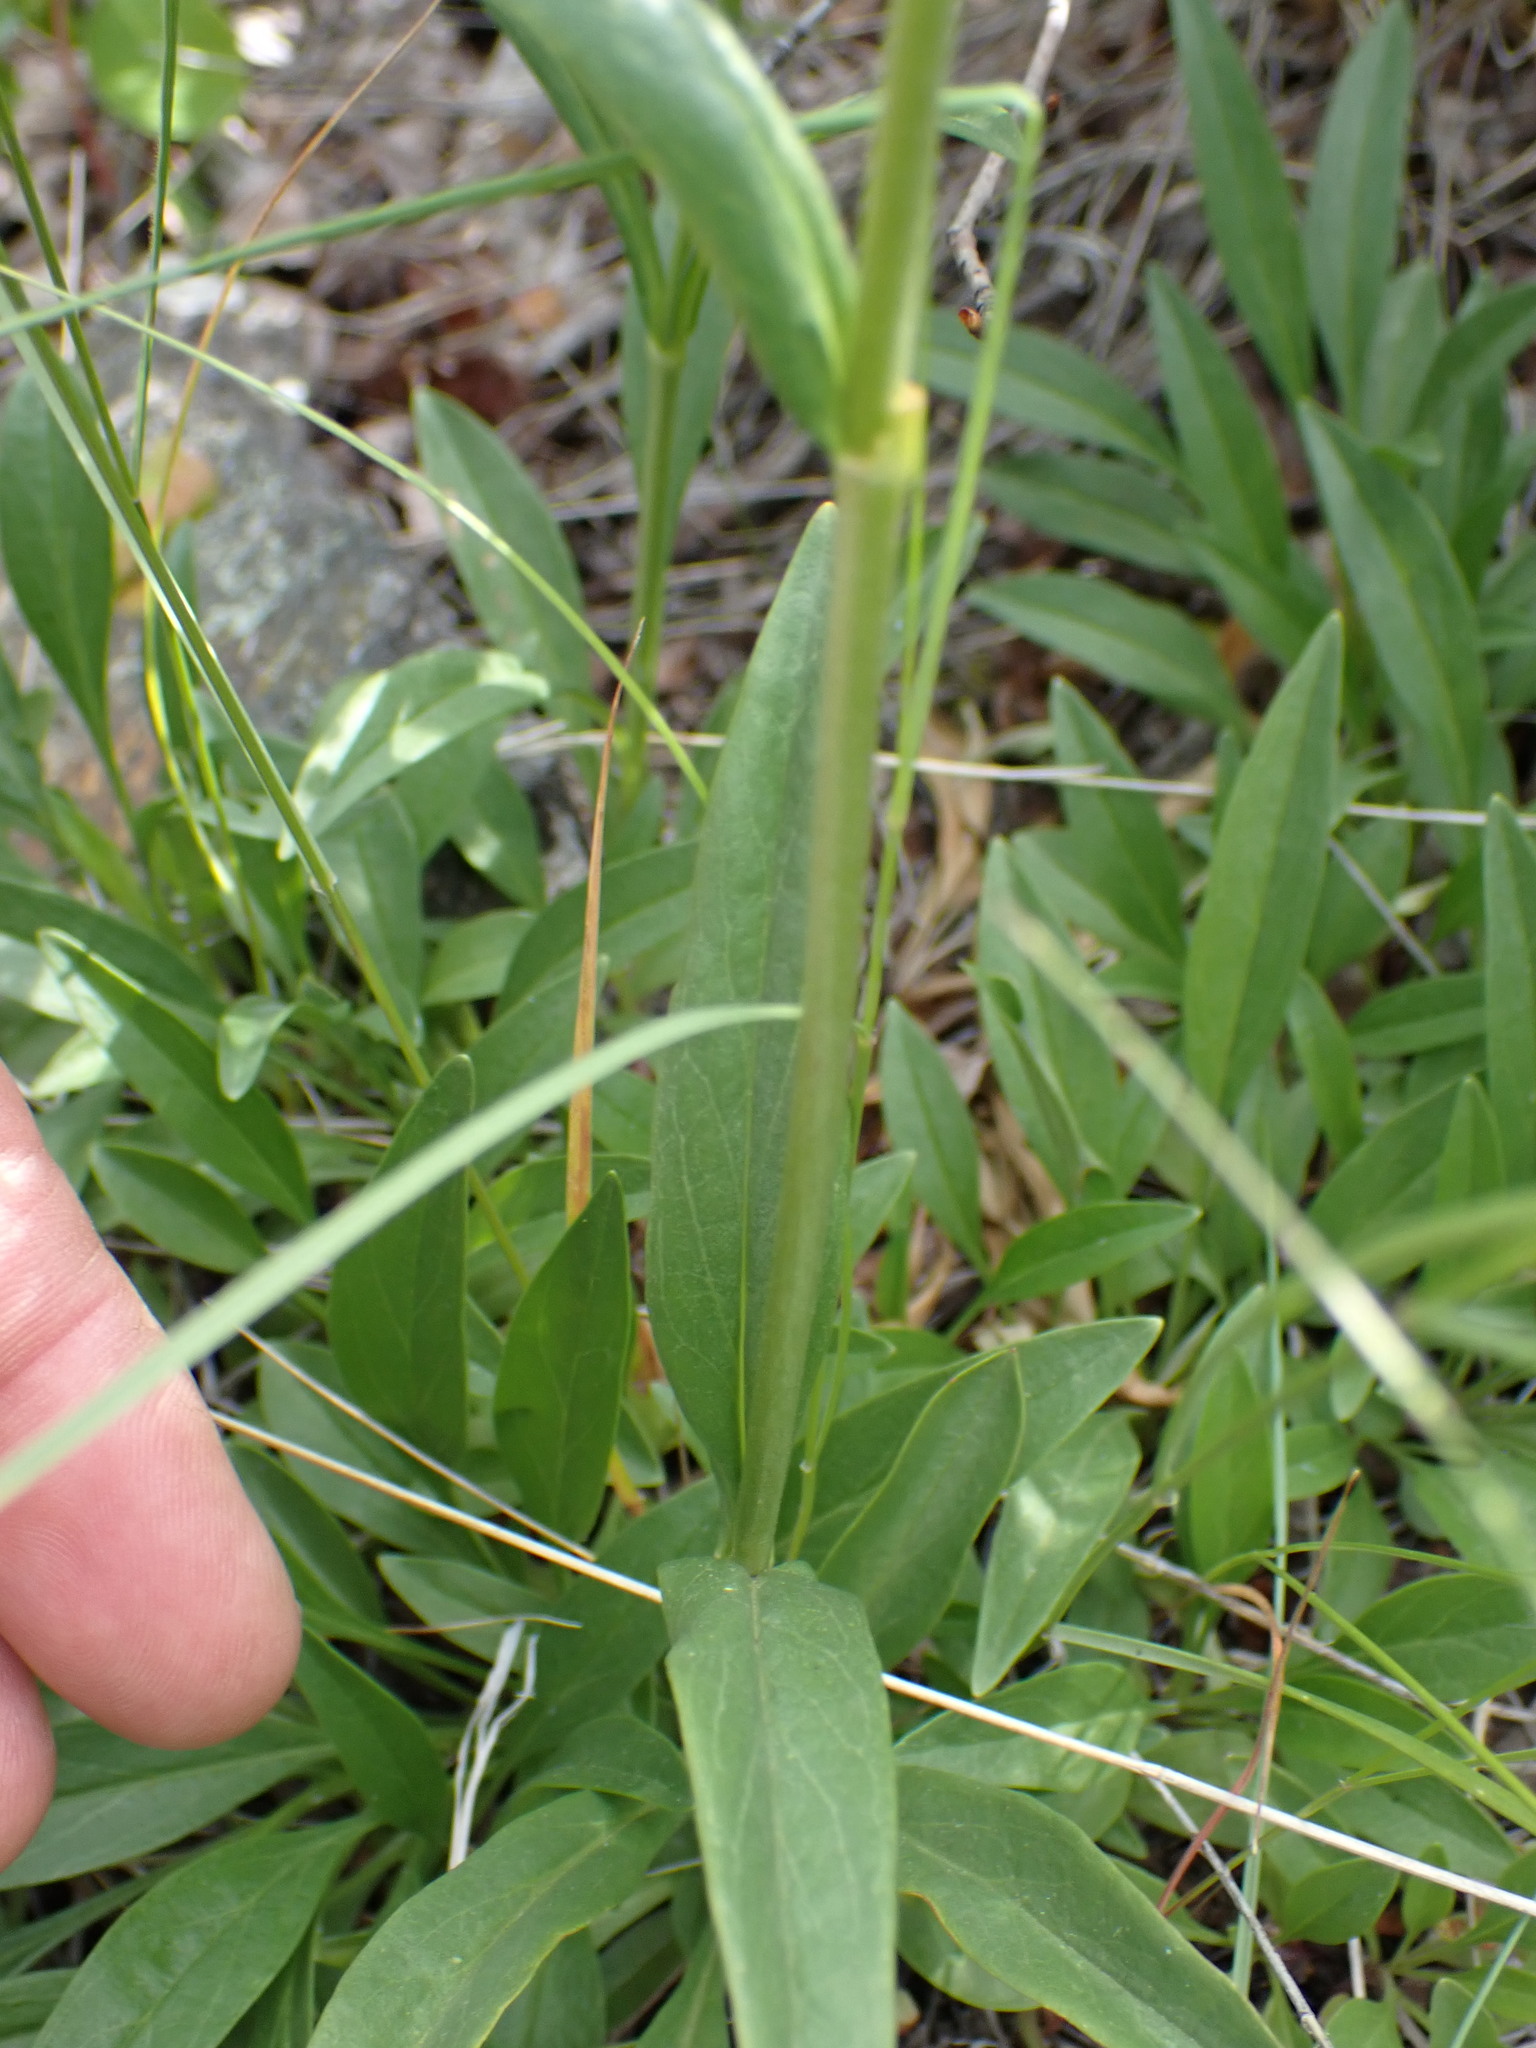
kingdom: Plantae
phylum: Tracheophyta
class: Magnoliopsida
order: Lamiales
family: Plantaginaceae
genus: Penstemon
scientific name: Penstemon confertus
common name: Lesser yellow beardtongue
